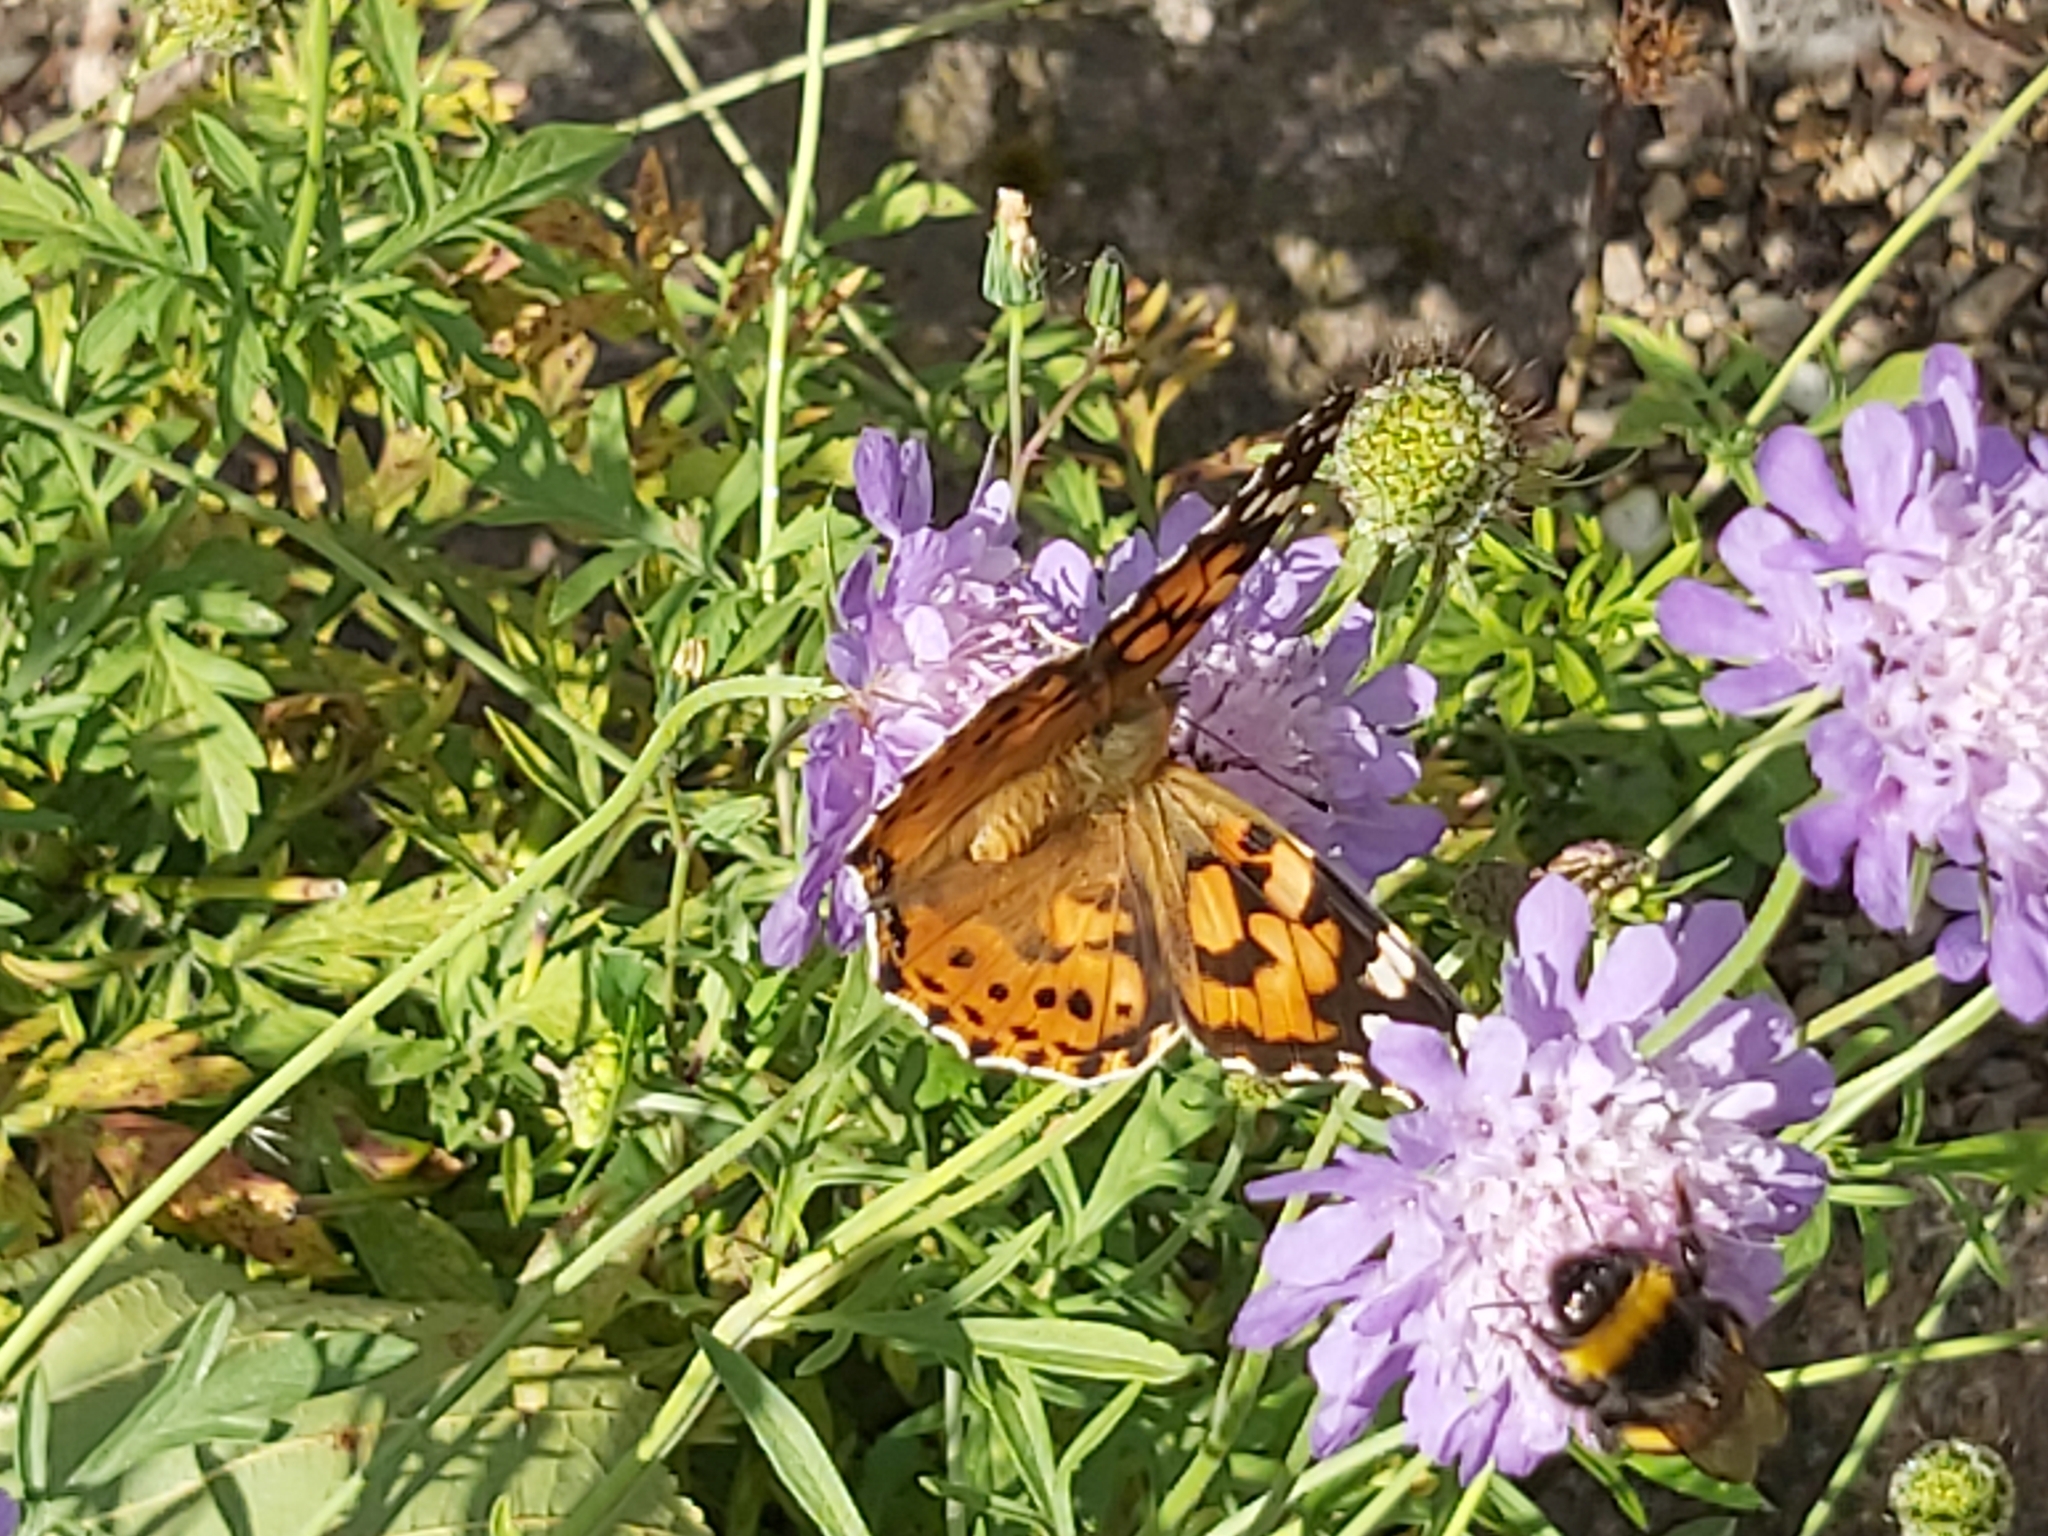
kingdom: Animalia
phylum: Arthropoda
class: Insecta
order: Lepidoptera
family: Nymphalidae
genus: Vanessa
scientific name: Vanessa cardui
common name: Painted lady
